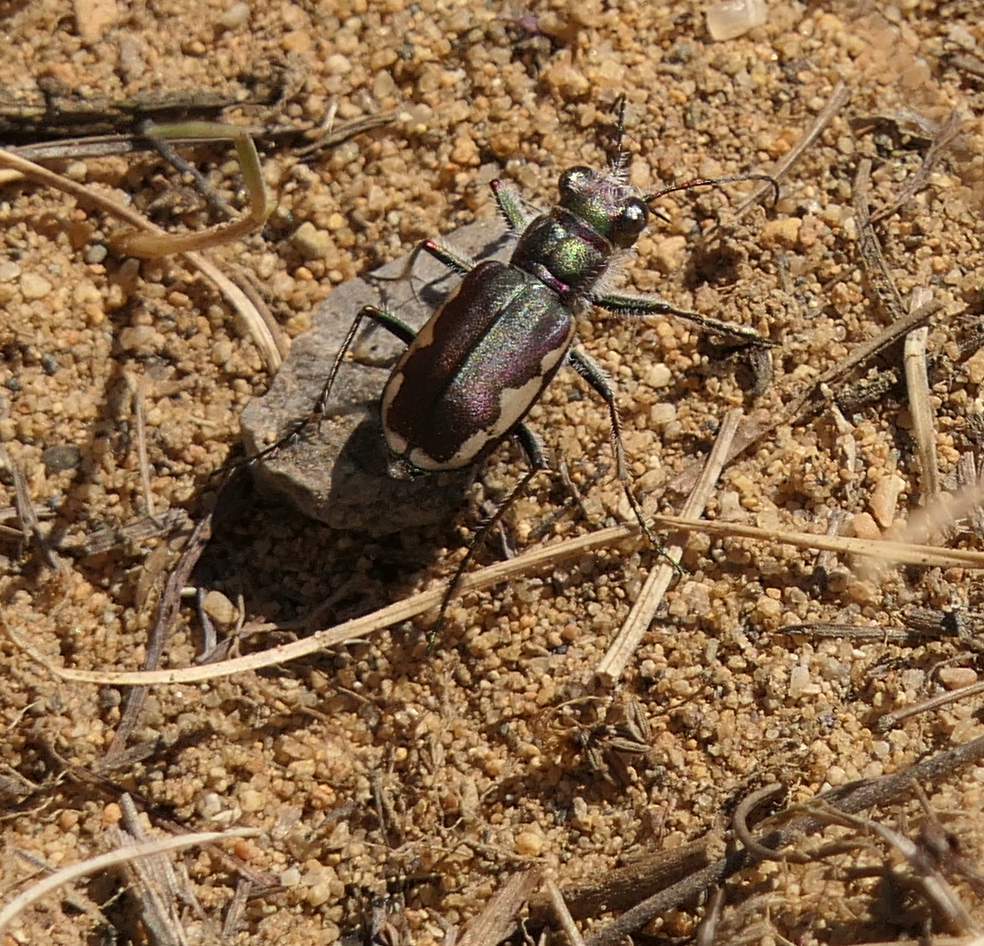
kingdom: Animalia
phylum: Arthropoda
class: Insecta
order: Coleoptera
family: Carabidae
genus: Cicindela
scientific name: Cicindela scutellaris
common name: Festive tiger beetle
